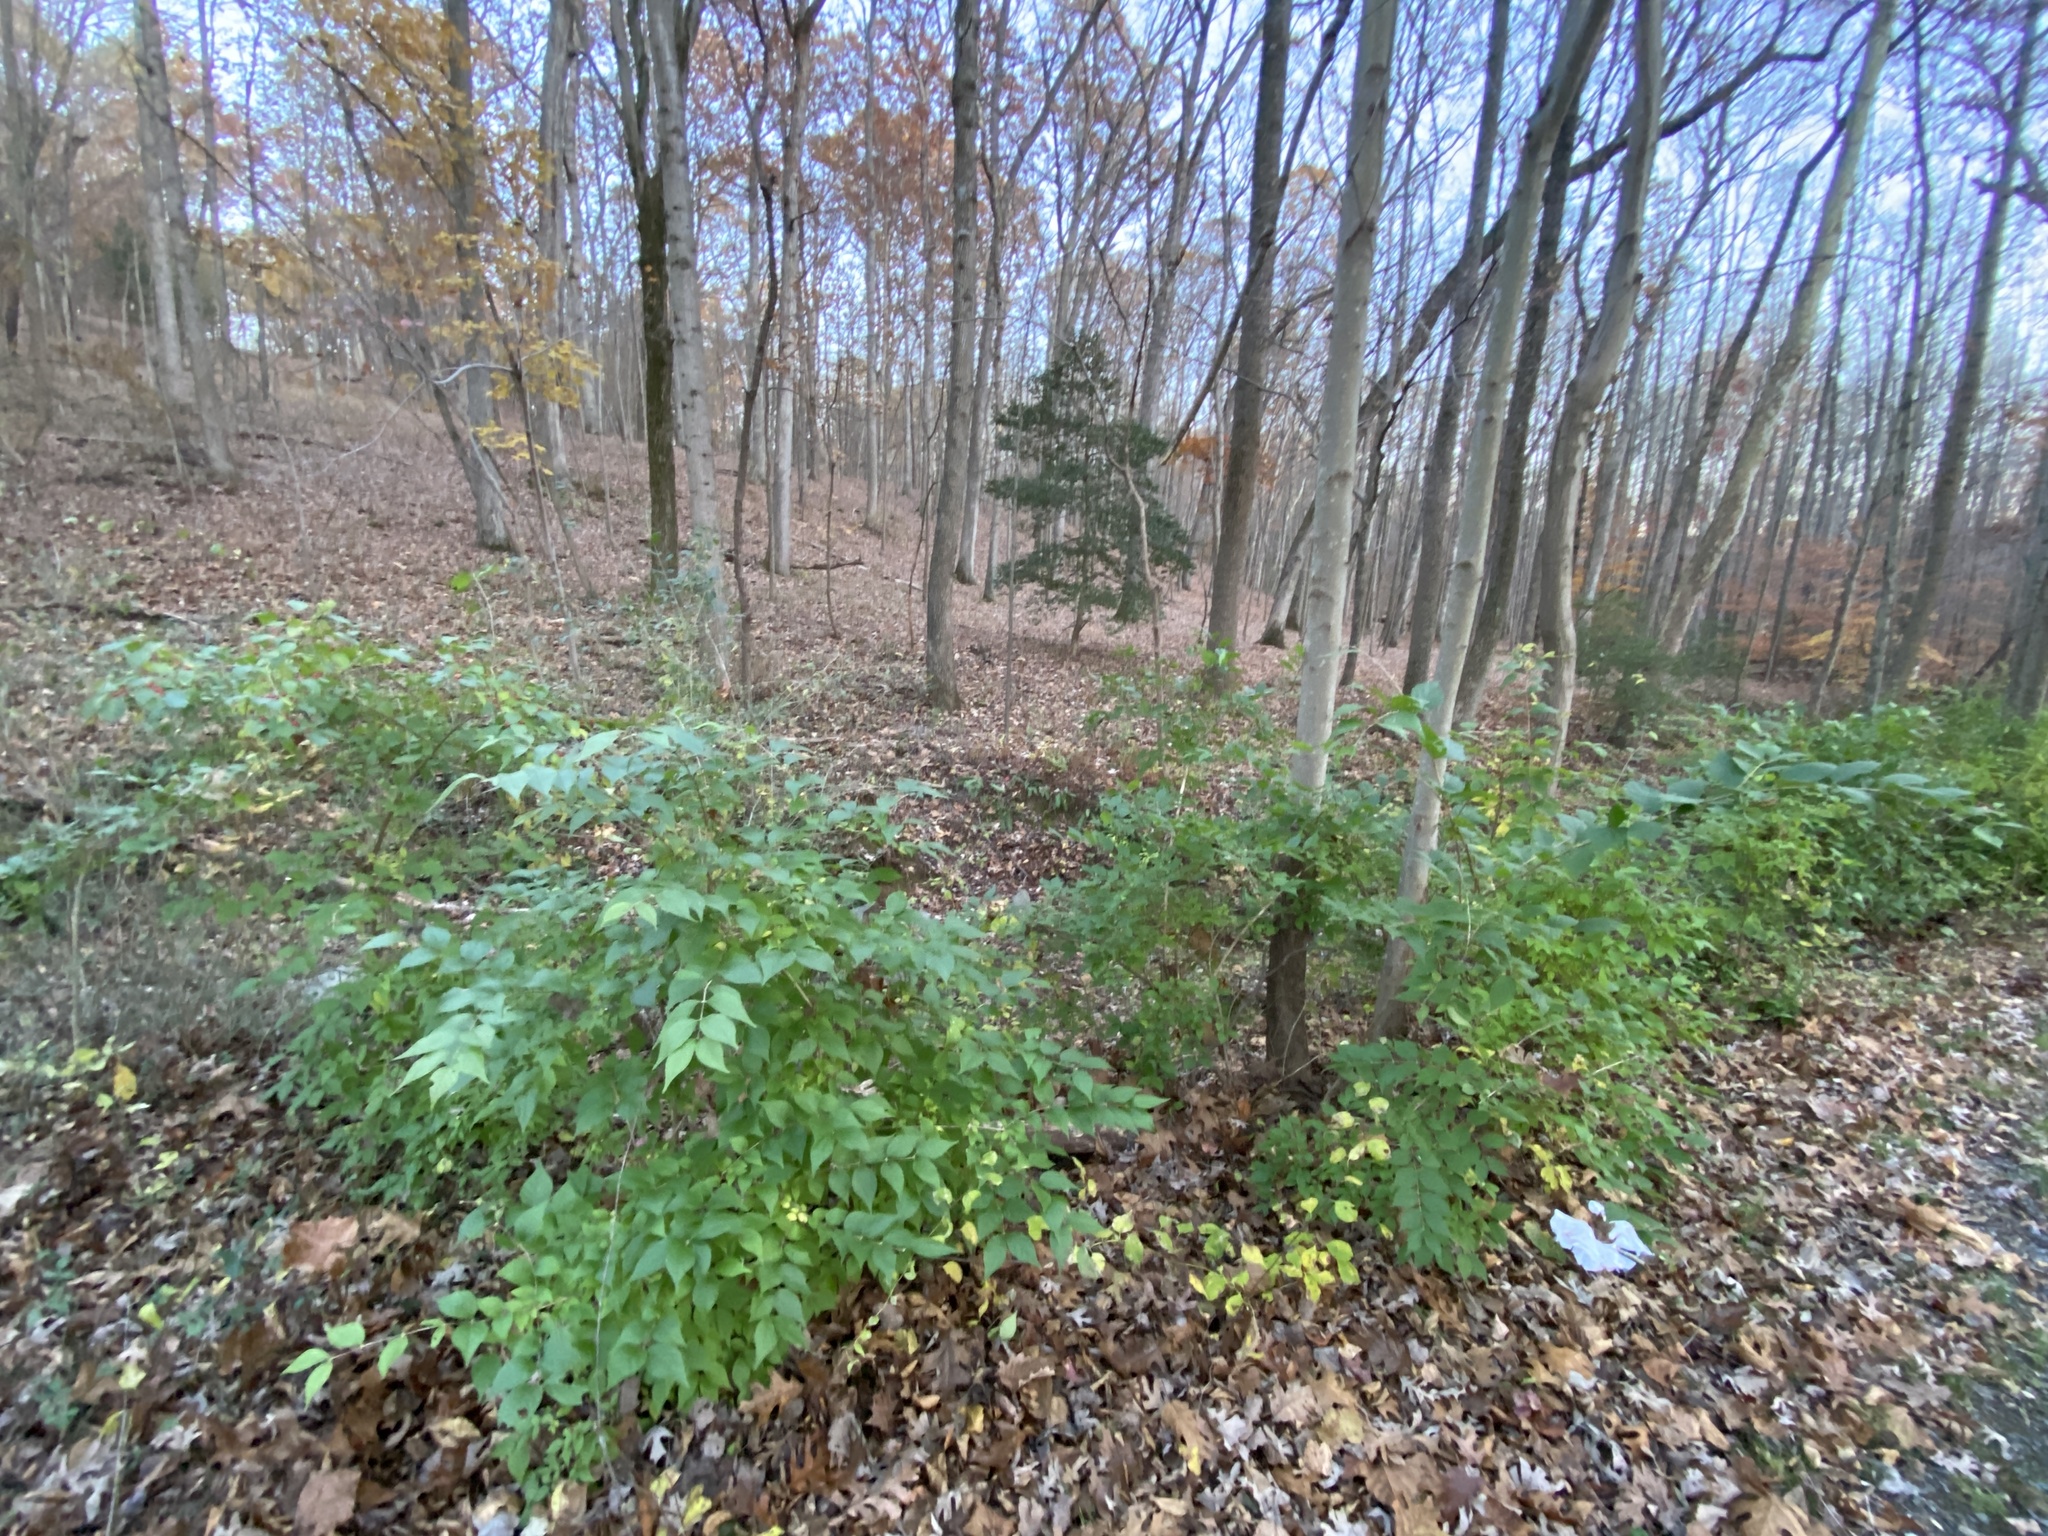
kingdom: Plantae
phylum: Tracheophyta
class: Magnoliopsida
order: Dipsacales
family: Caprifoliaceae
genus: Lonicera
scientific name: Lonicera maackii
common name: Amur honeysuckle
